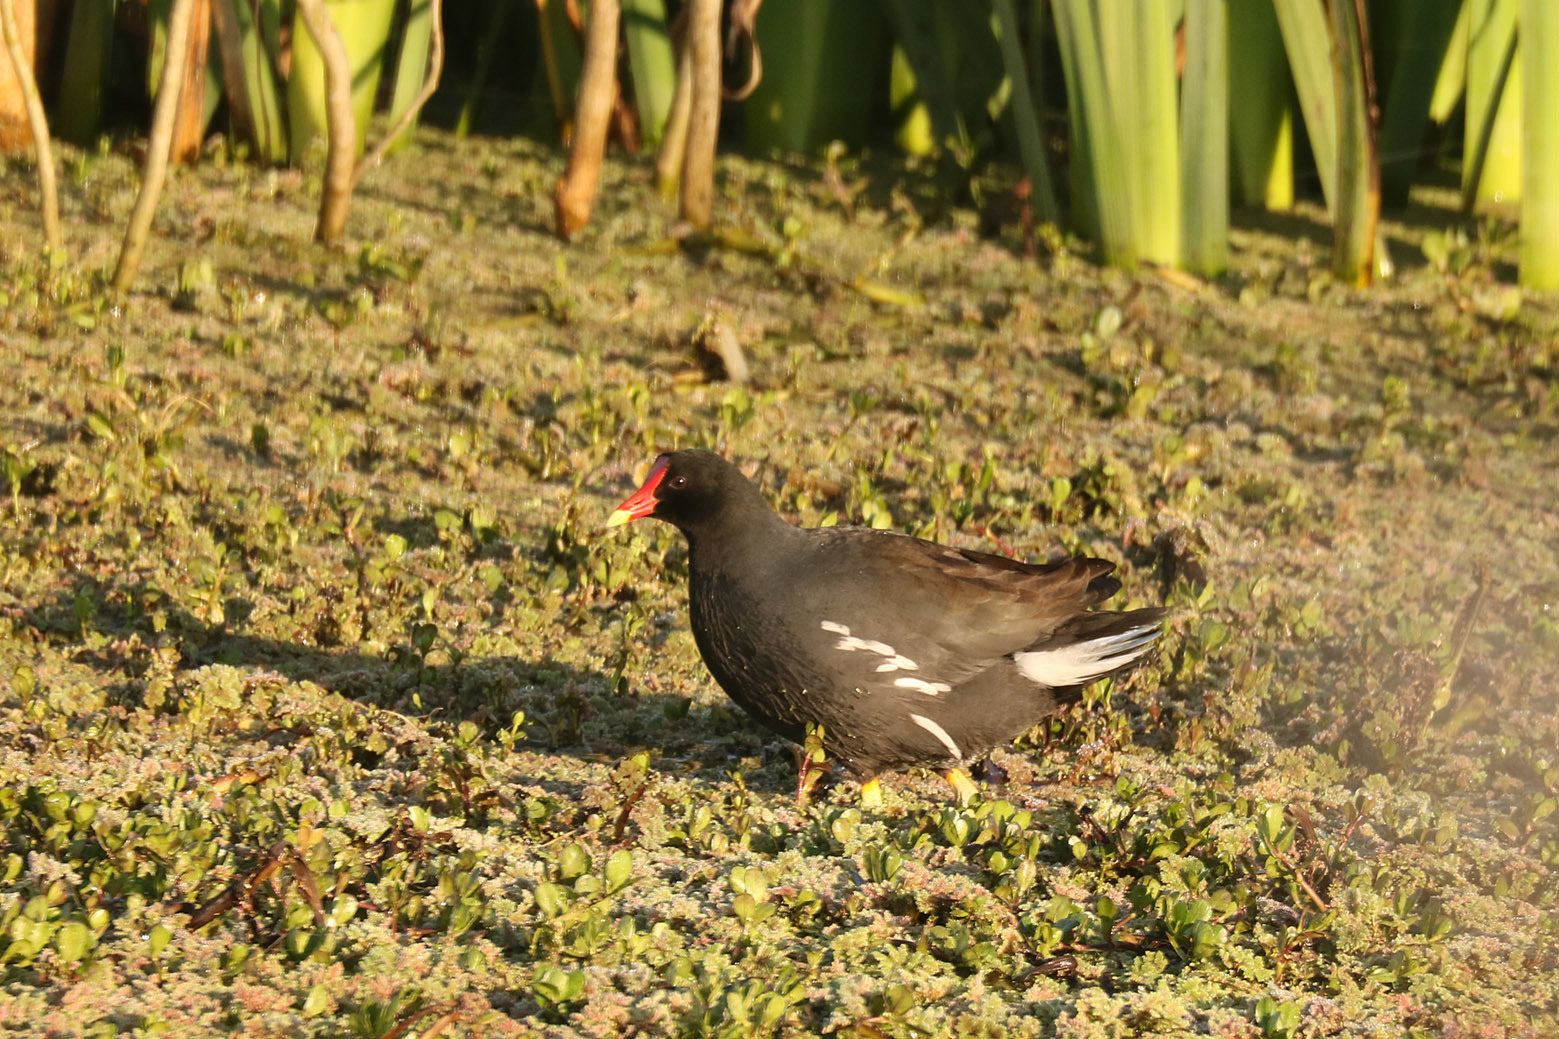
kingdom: Animalia
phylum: Chordata
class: Aves
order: Gruiformes
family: Rallidae
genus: Gallinula
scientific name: Gallinula chloropus
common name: Common moorhen
